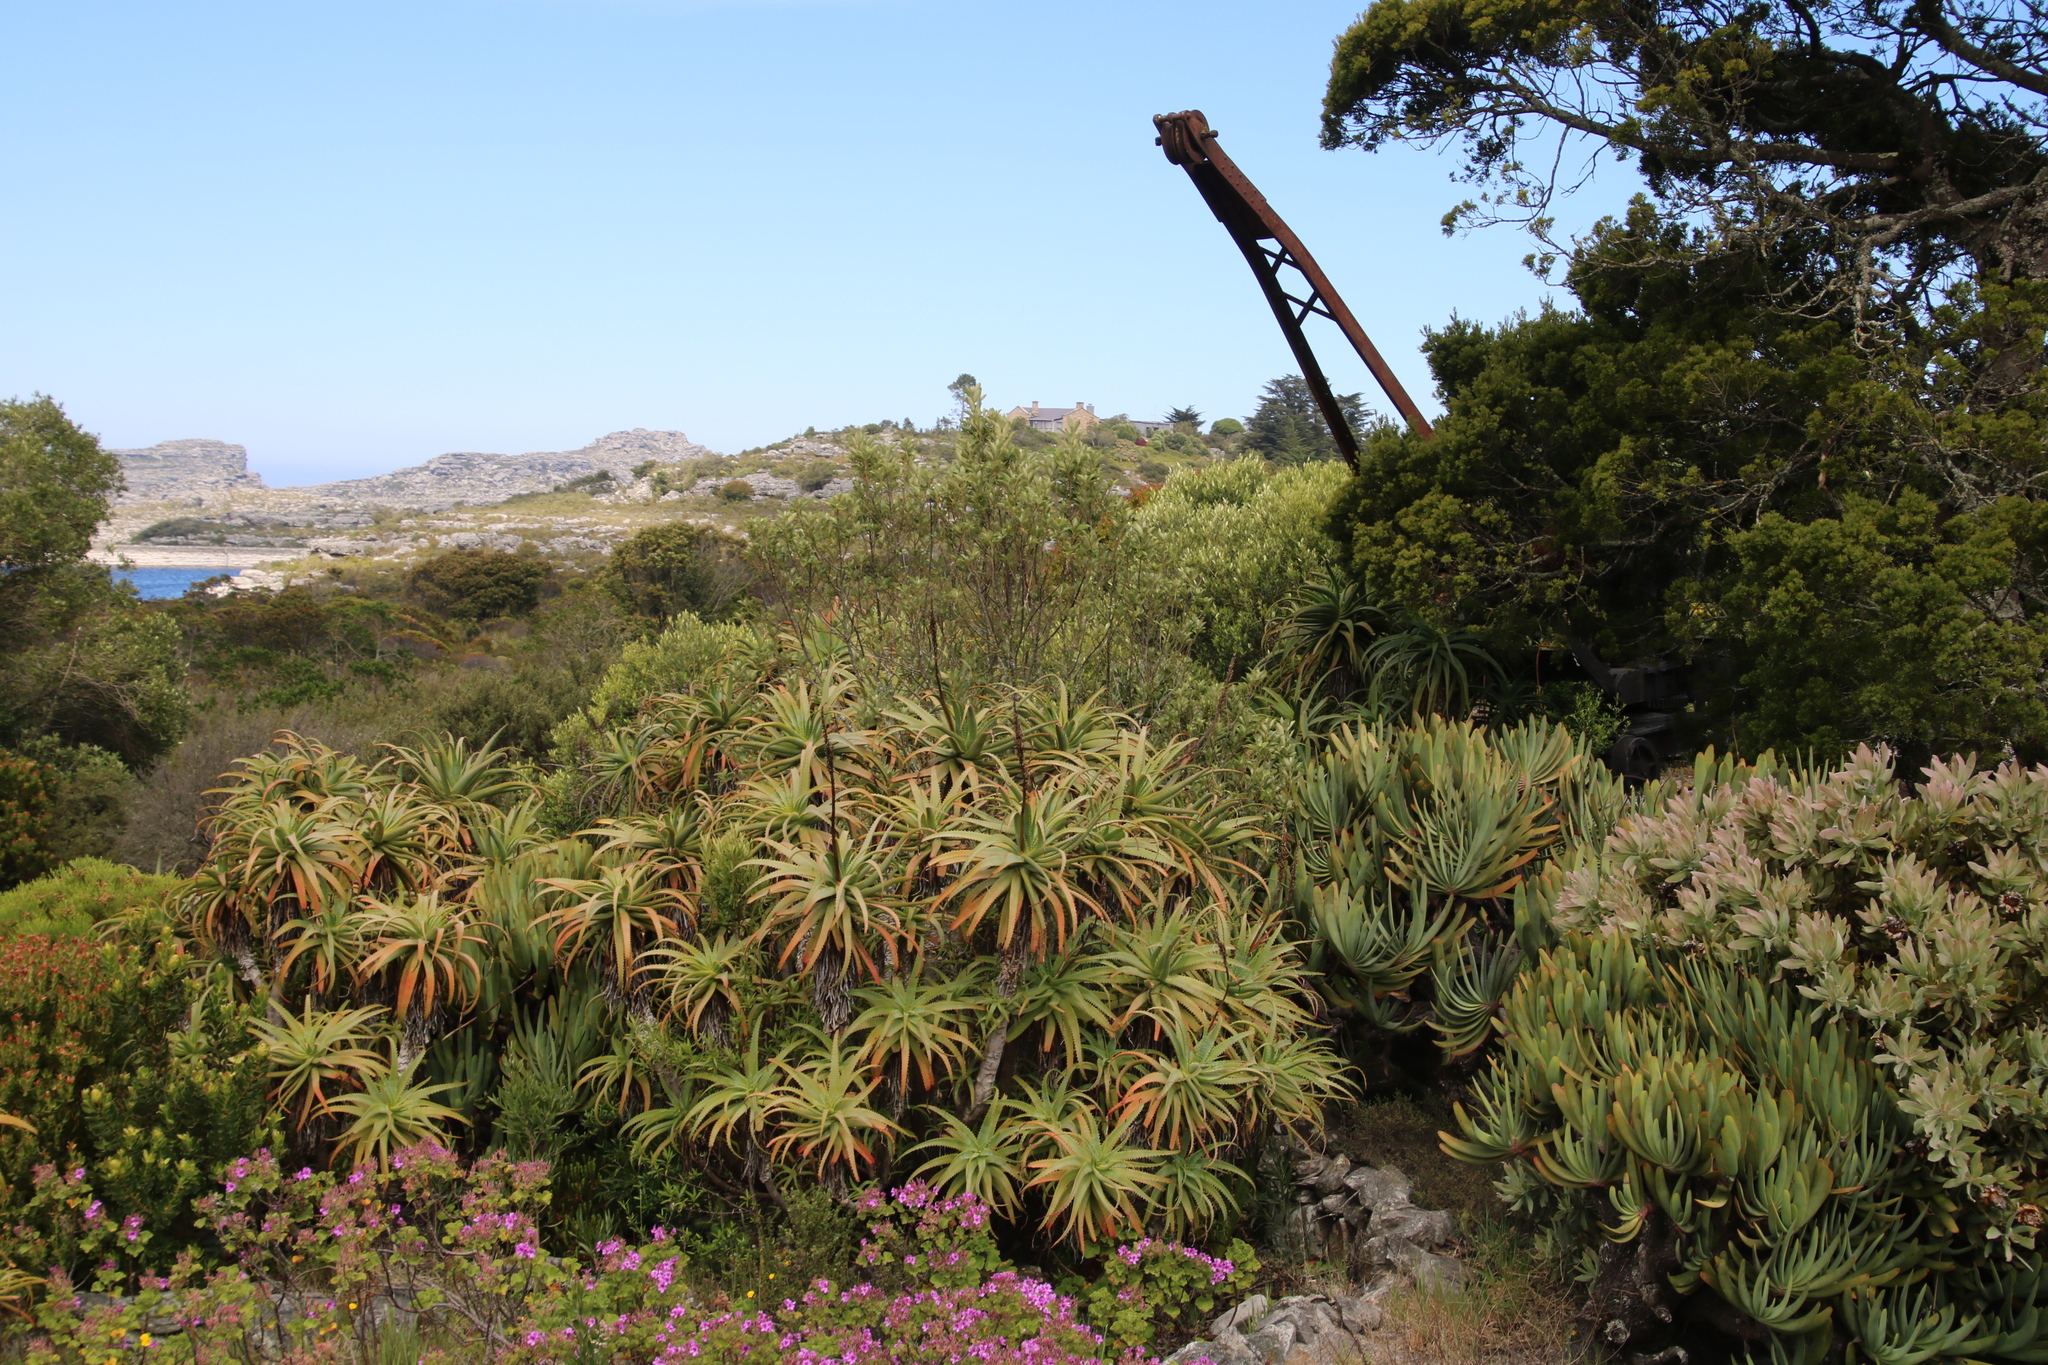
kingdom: Plantae
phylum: Tracheophyta
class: Liliopsida
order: Asparagales
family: Asphodelaceae
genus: Aloe
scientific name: Aloe arborescens
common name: Candelabra aloe
